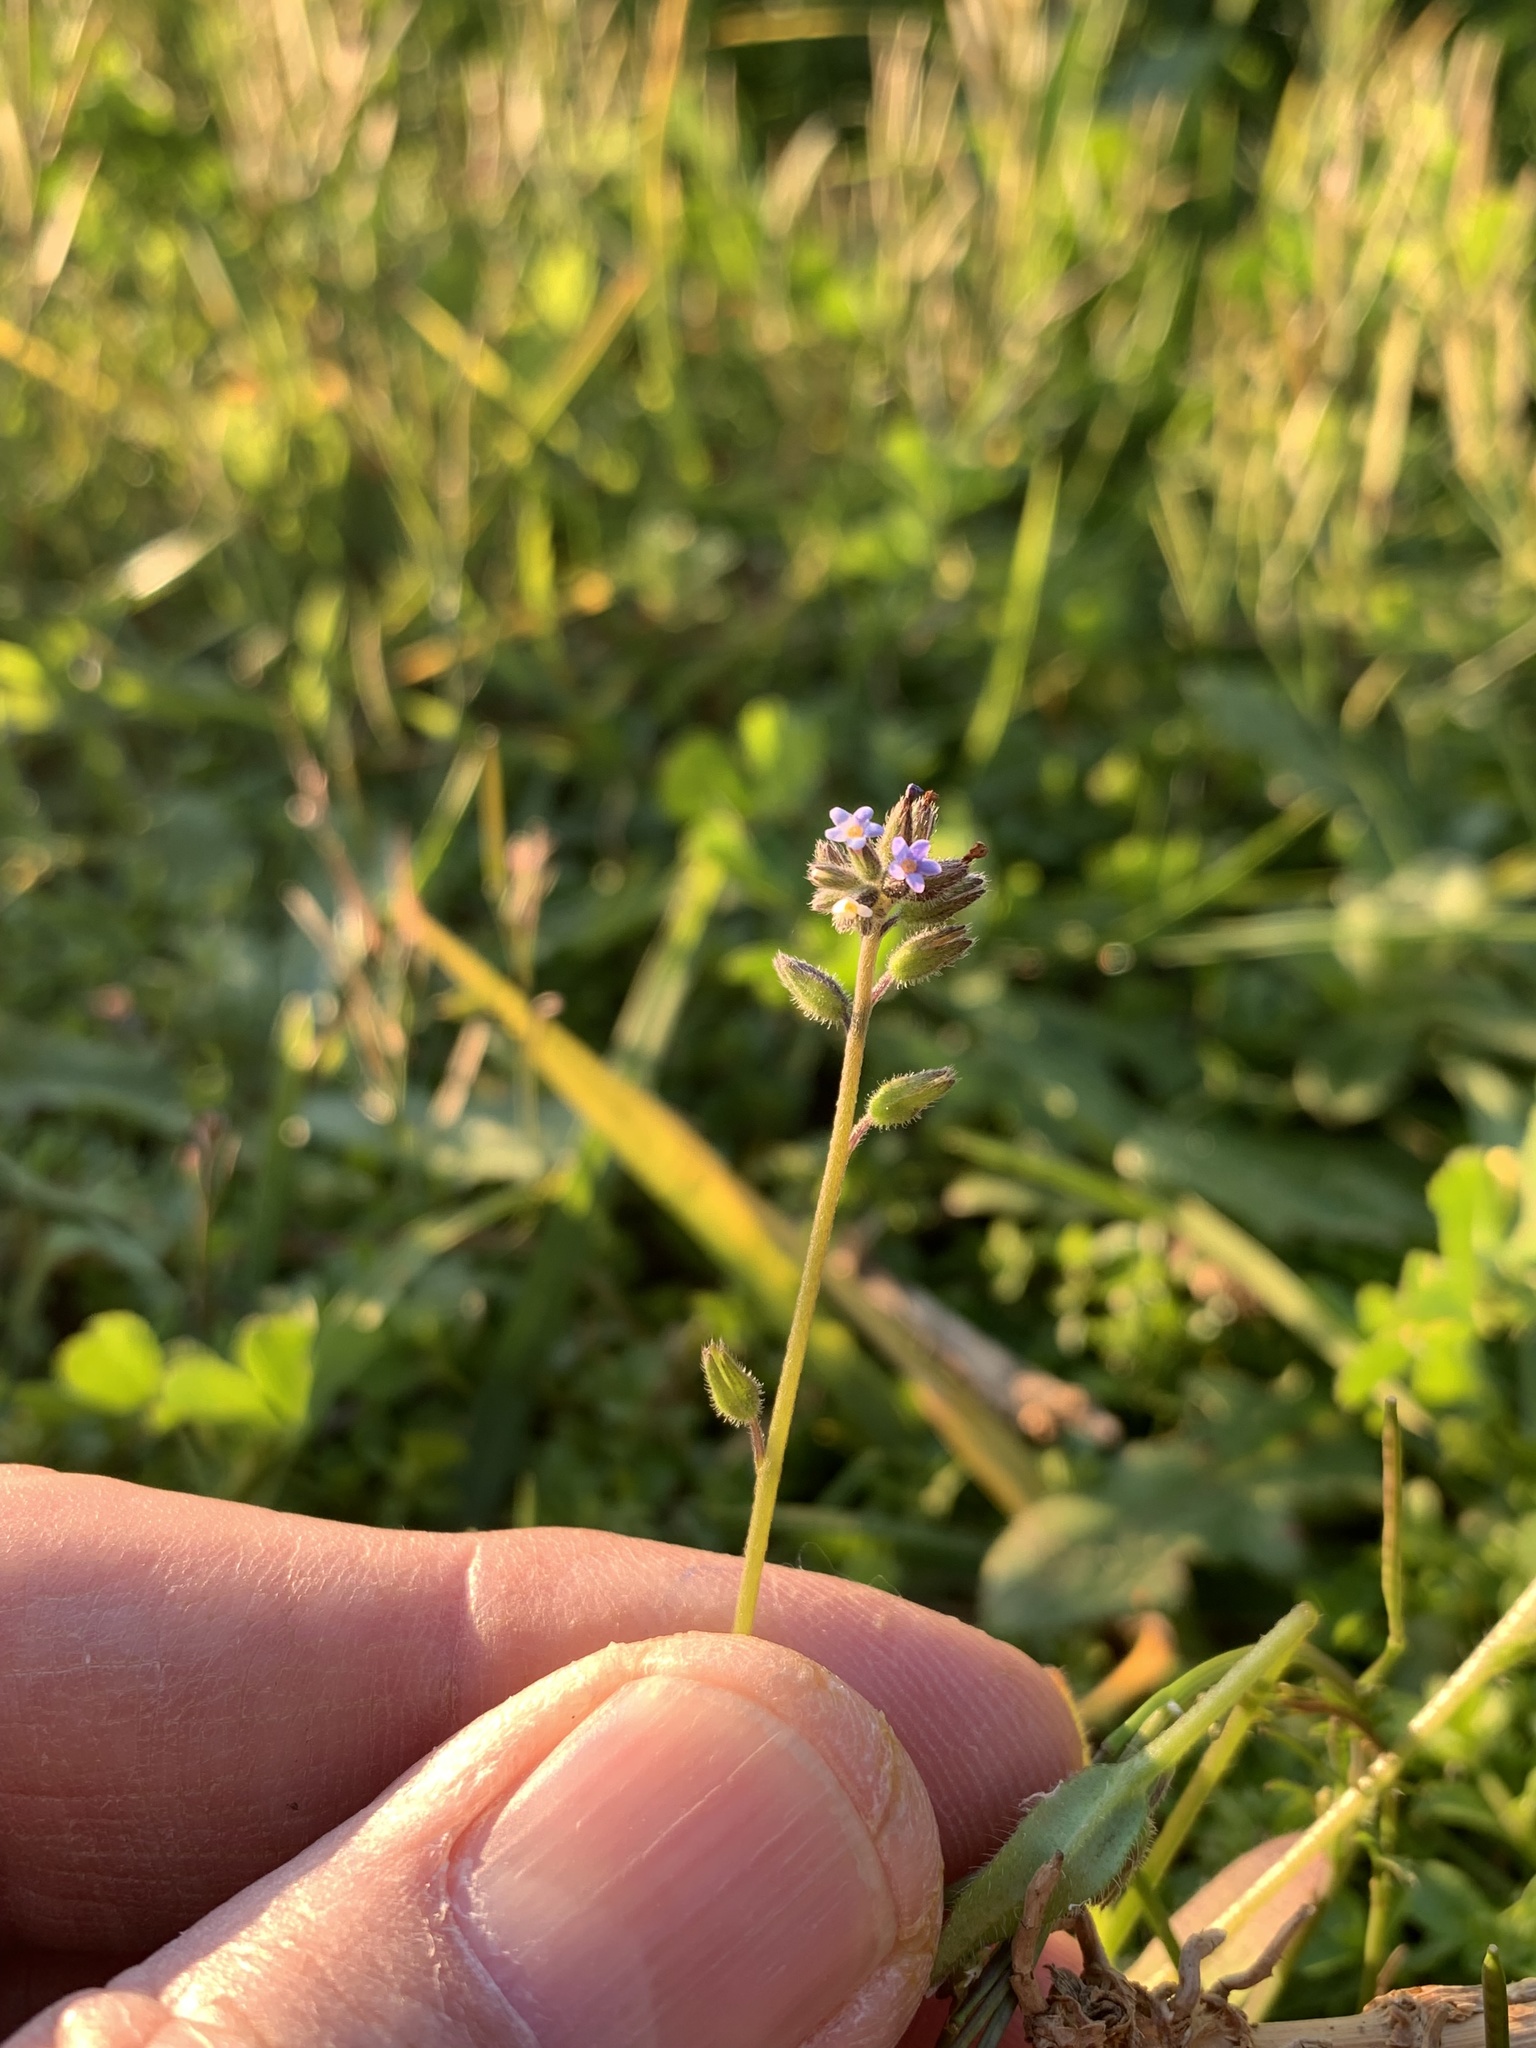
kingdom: Plantae
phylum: Tracheophyta
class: Magnoliopsida
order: Boraginales
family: Boraginaceae
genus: Myosotis
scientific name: Myosotis discolor
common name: Changing forget-me-not
